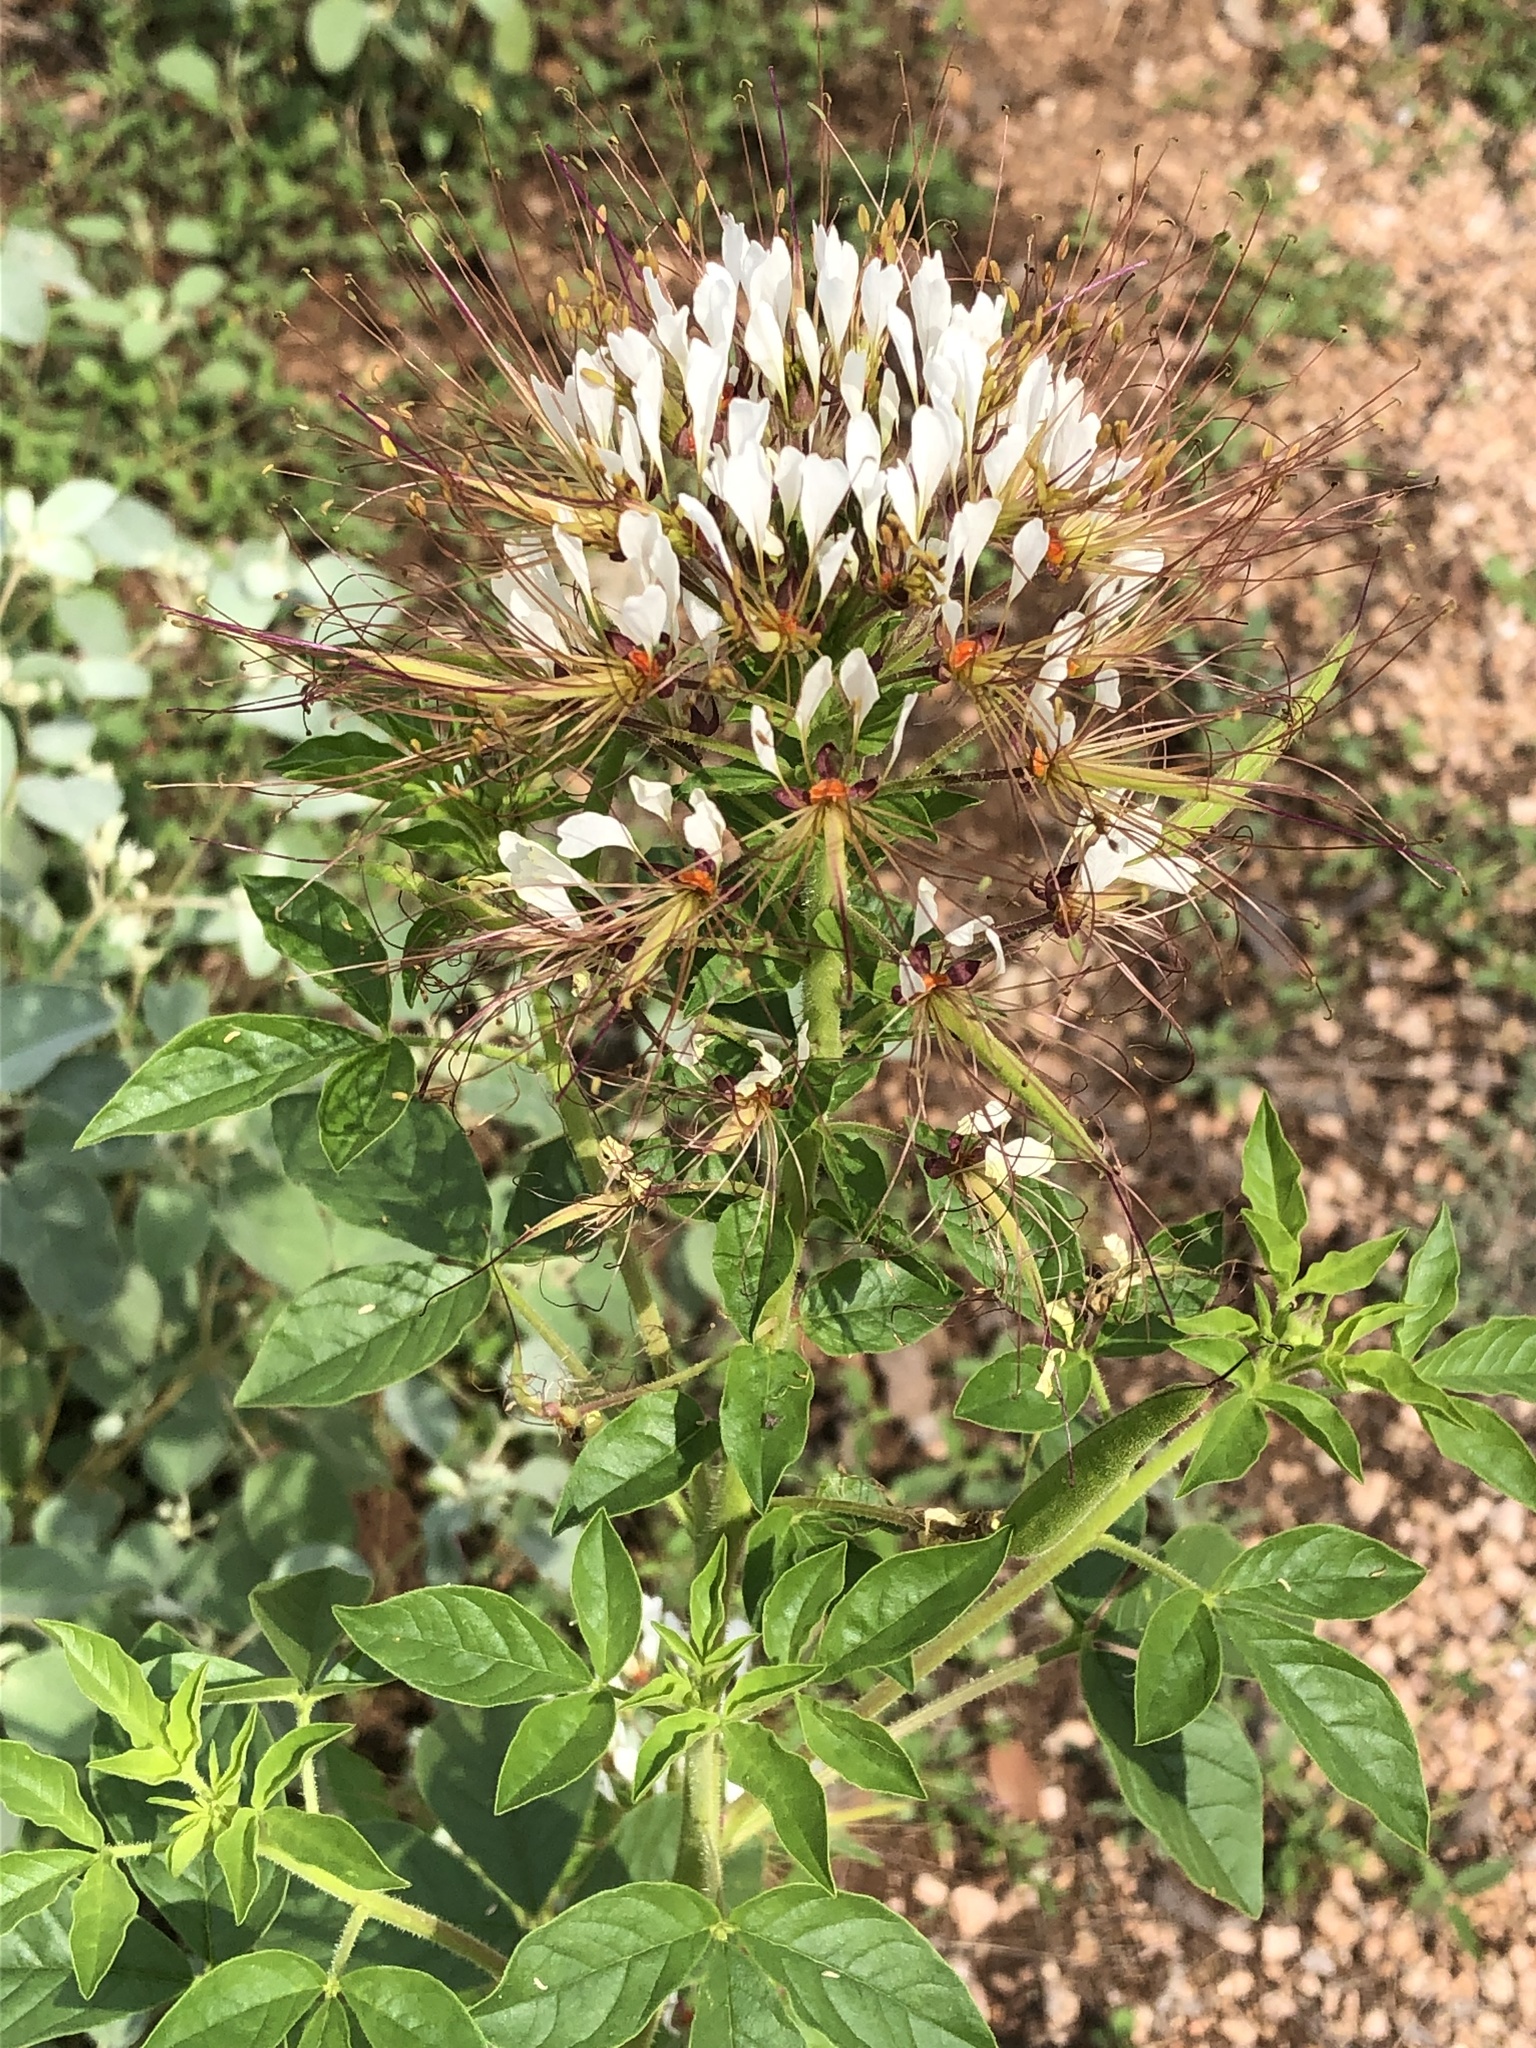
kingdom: Plantae
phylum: Tracheophyta
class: Magnoliopsida
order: Brassicales
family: Cleomaceae
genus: Polanisia
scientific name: Polanisia dodecandra
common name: Clammyweed
